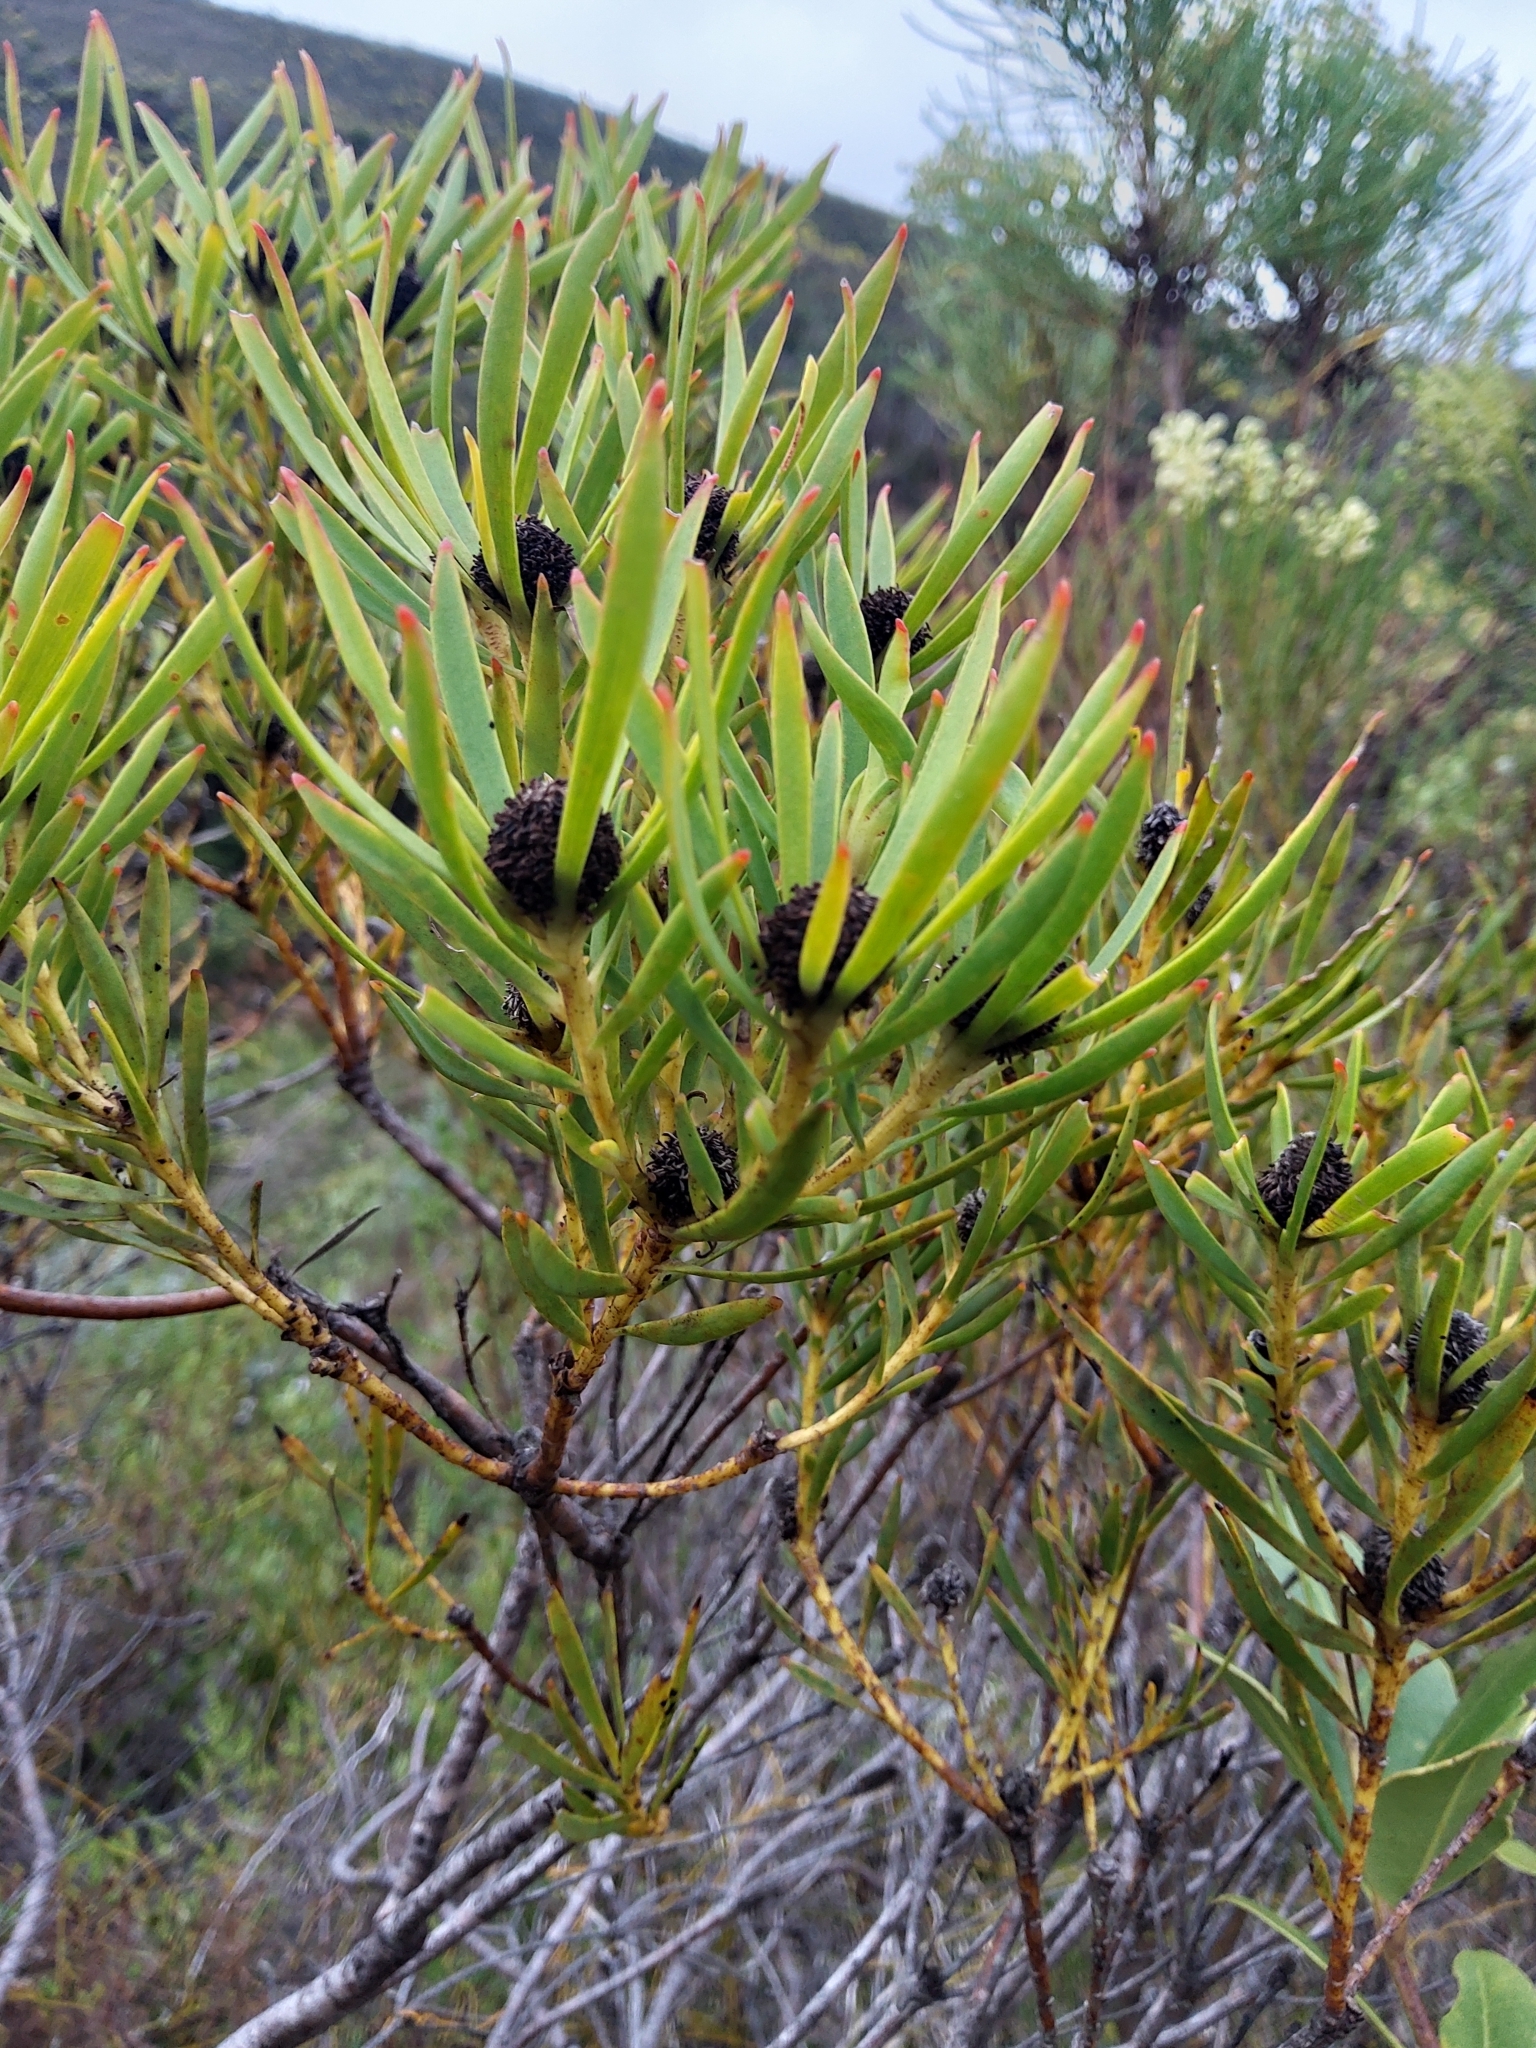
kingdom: Plantae
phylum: Tracheophyta
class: Magnoliopsida
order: Proteales
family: Proteaceae
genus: Leucadendron
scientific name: Leucadendron coniferum
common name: Dune conebush
